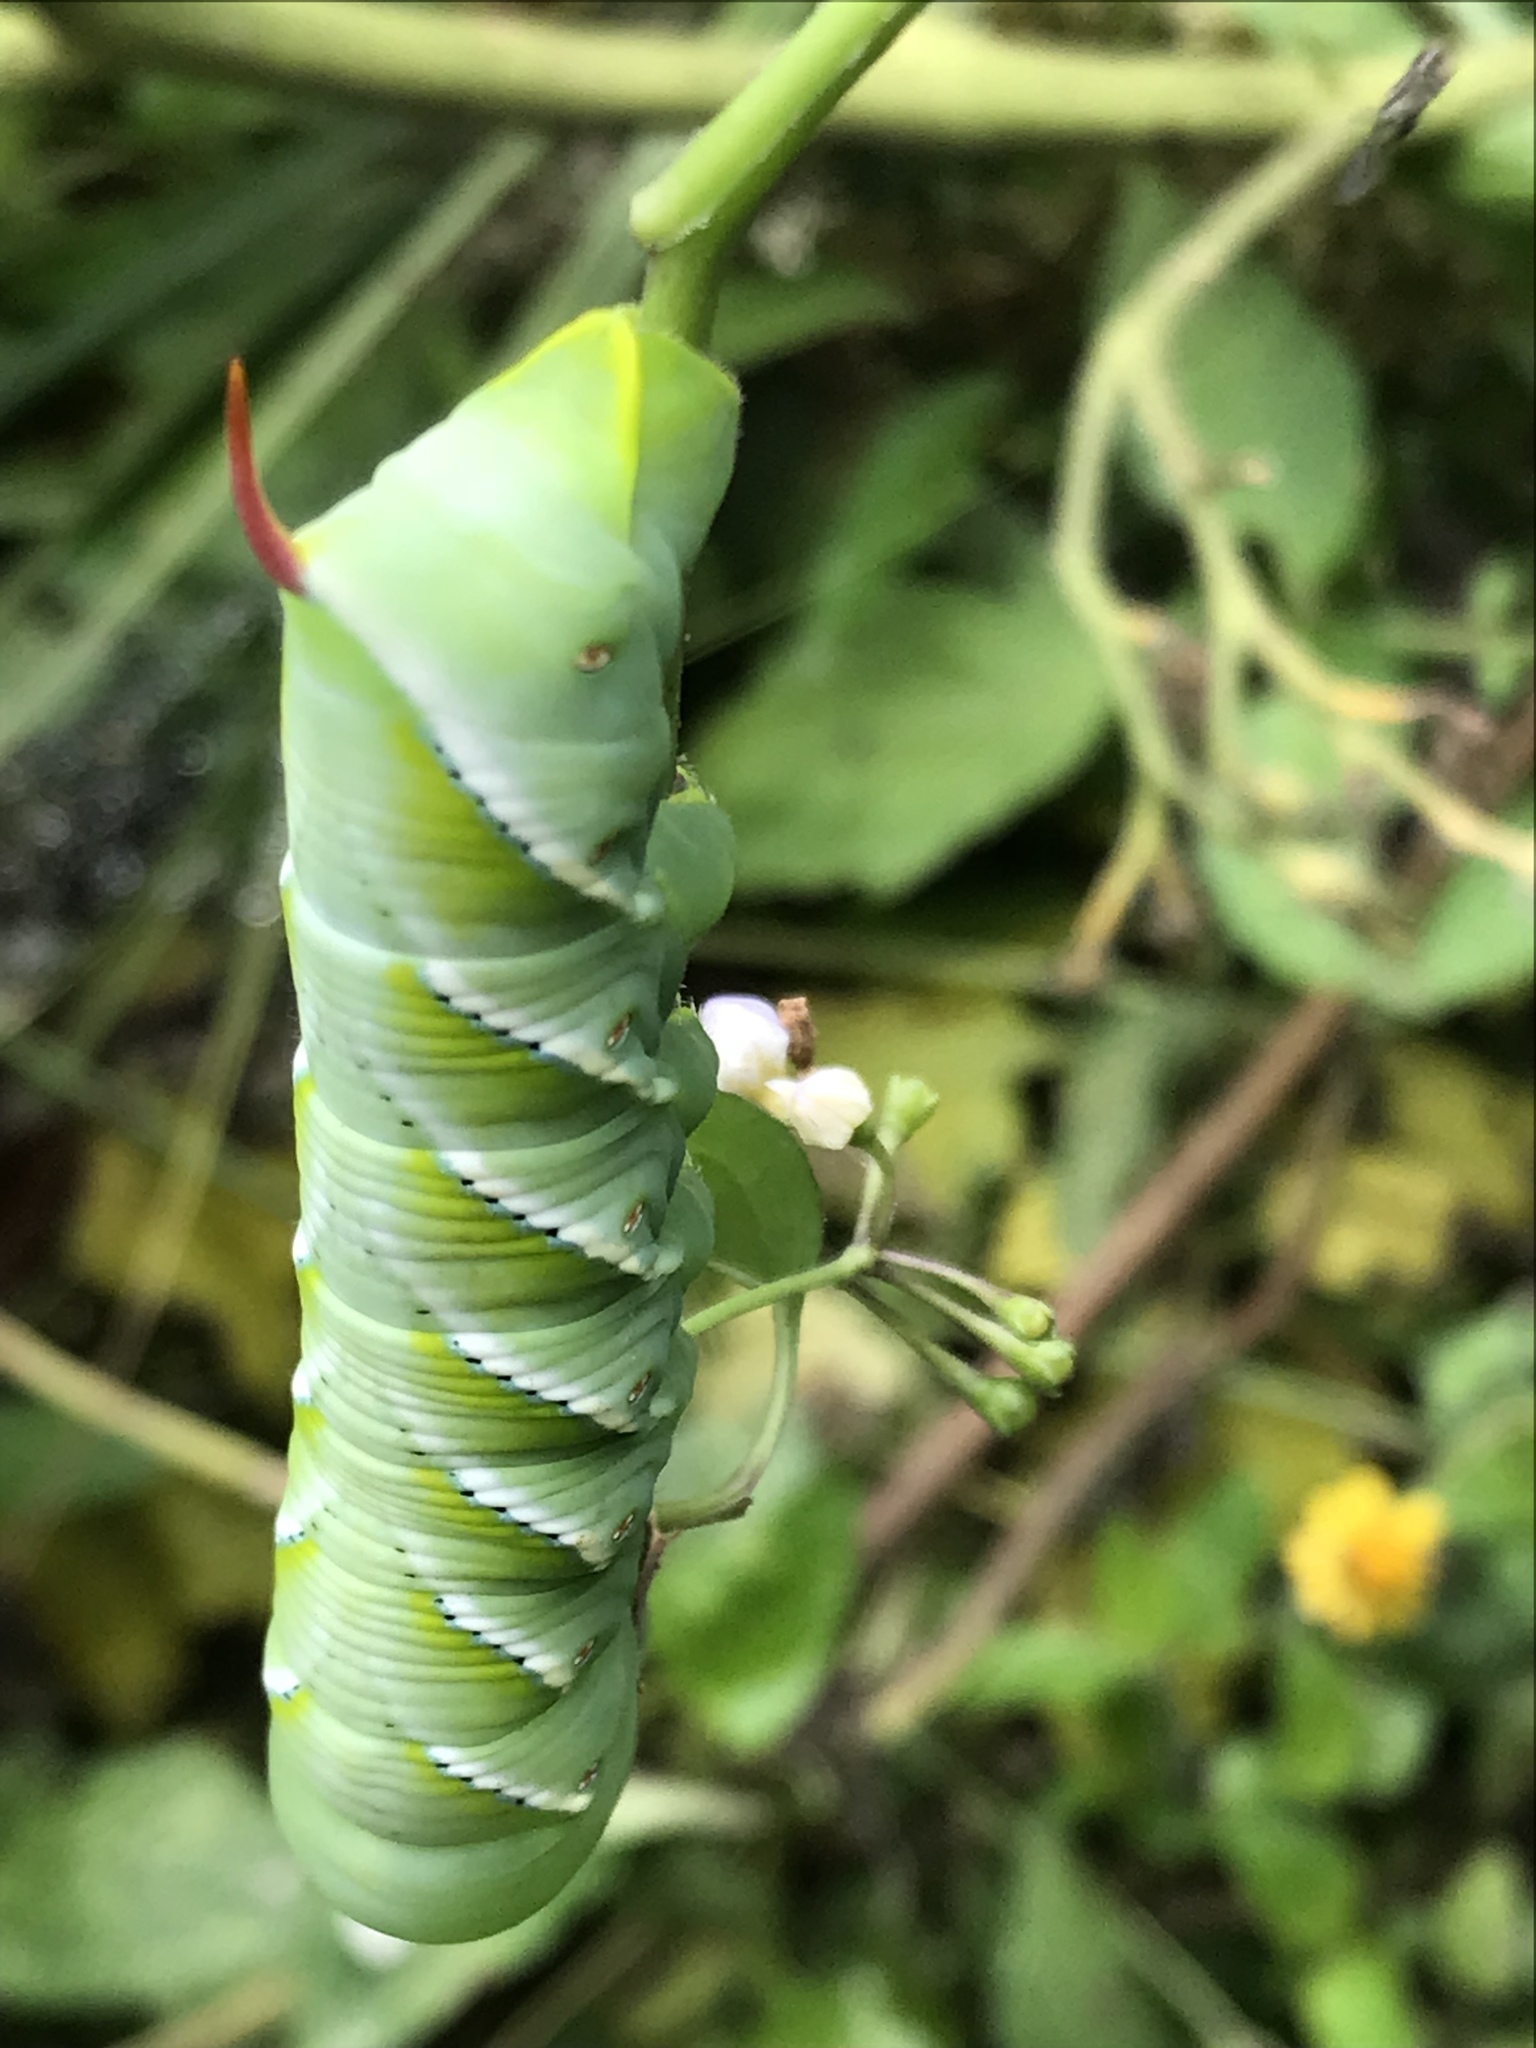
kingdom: Animalia
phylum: Arthropoda
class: Insecta
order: Lepidoptera
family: Sphingidae
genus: Manduca
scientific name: Manduca sexta
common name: Carolina sphinx
